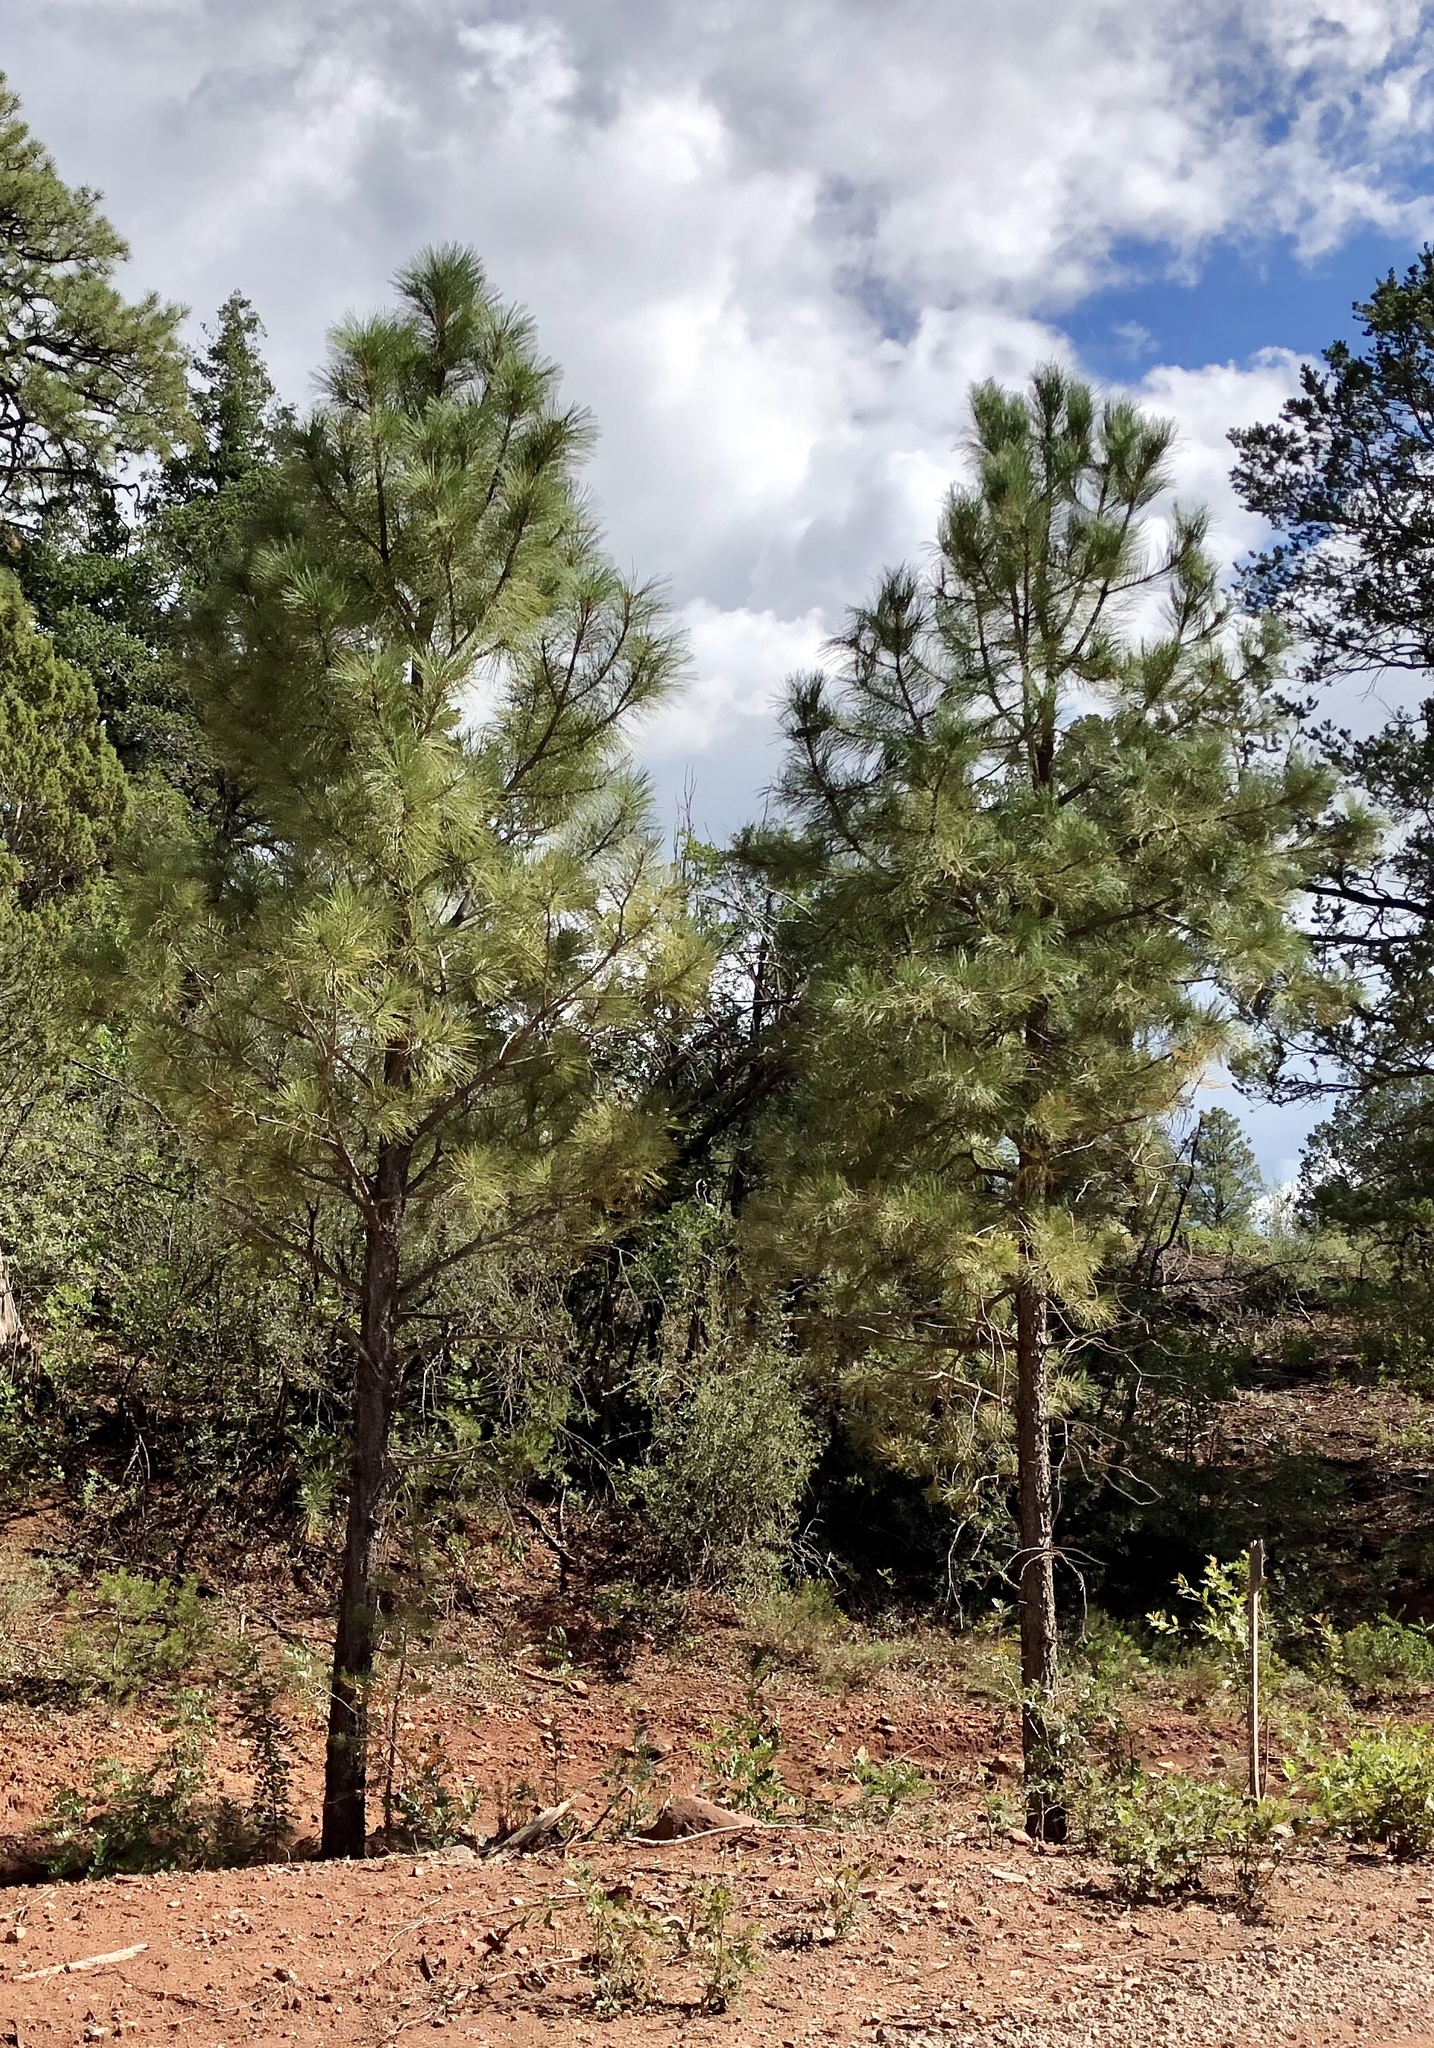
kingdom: Plantae
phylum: Tracheophyta
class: Pinopsida
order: Pinales
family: Pinaceae
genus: Pinus
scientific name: Pinus ponderosa
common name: Western yellow-pine
